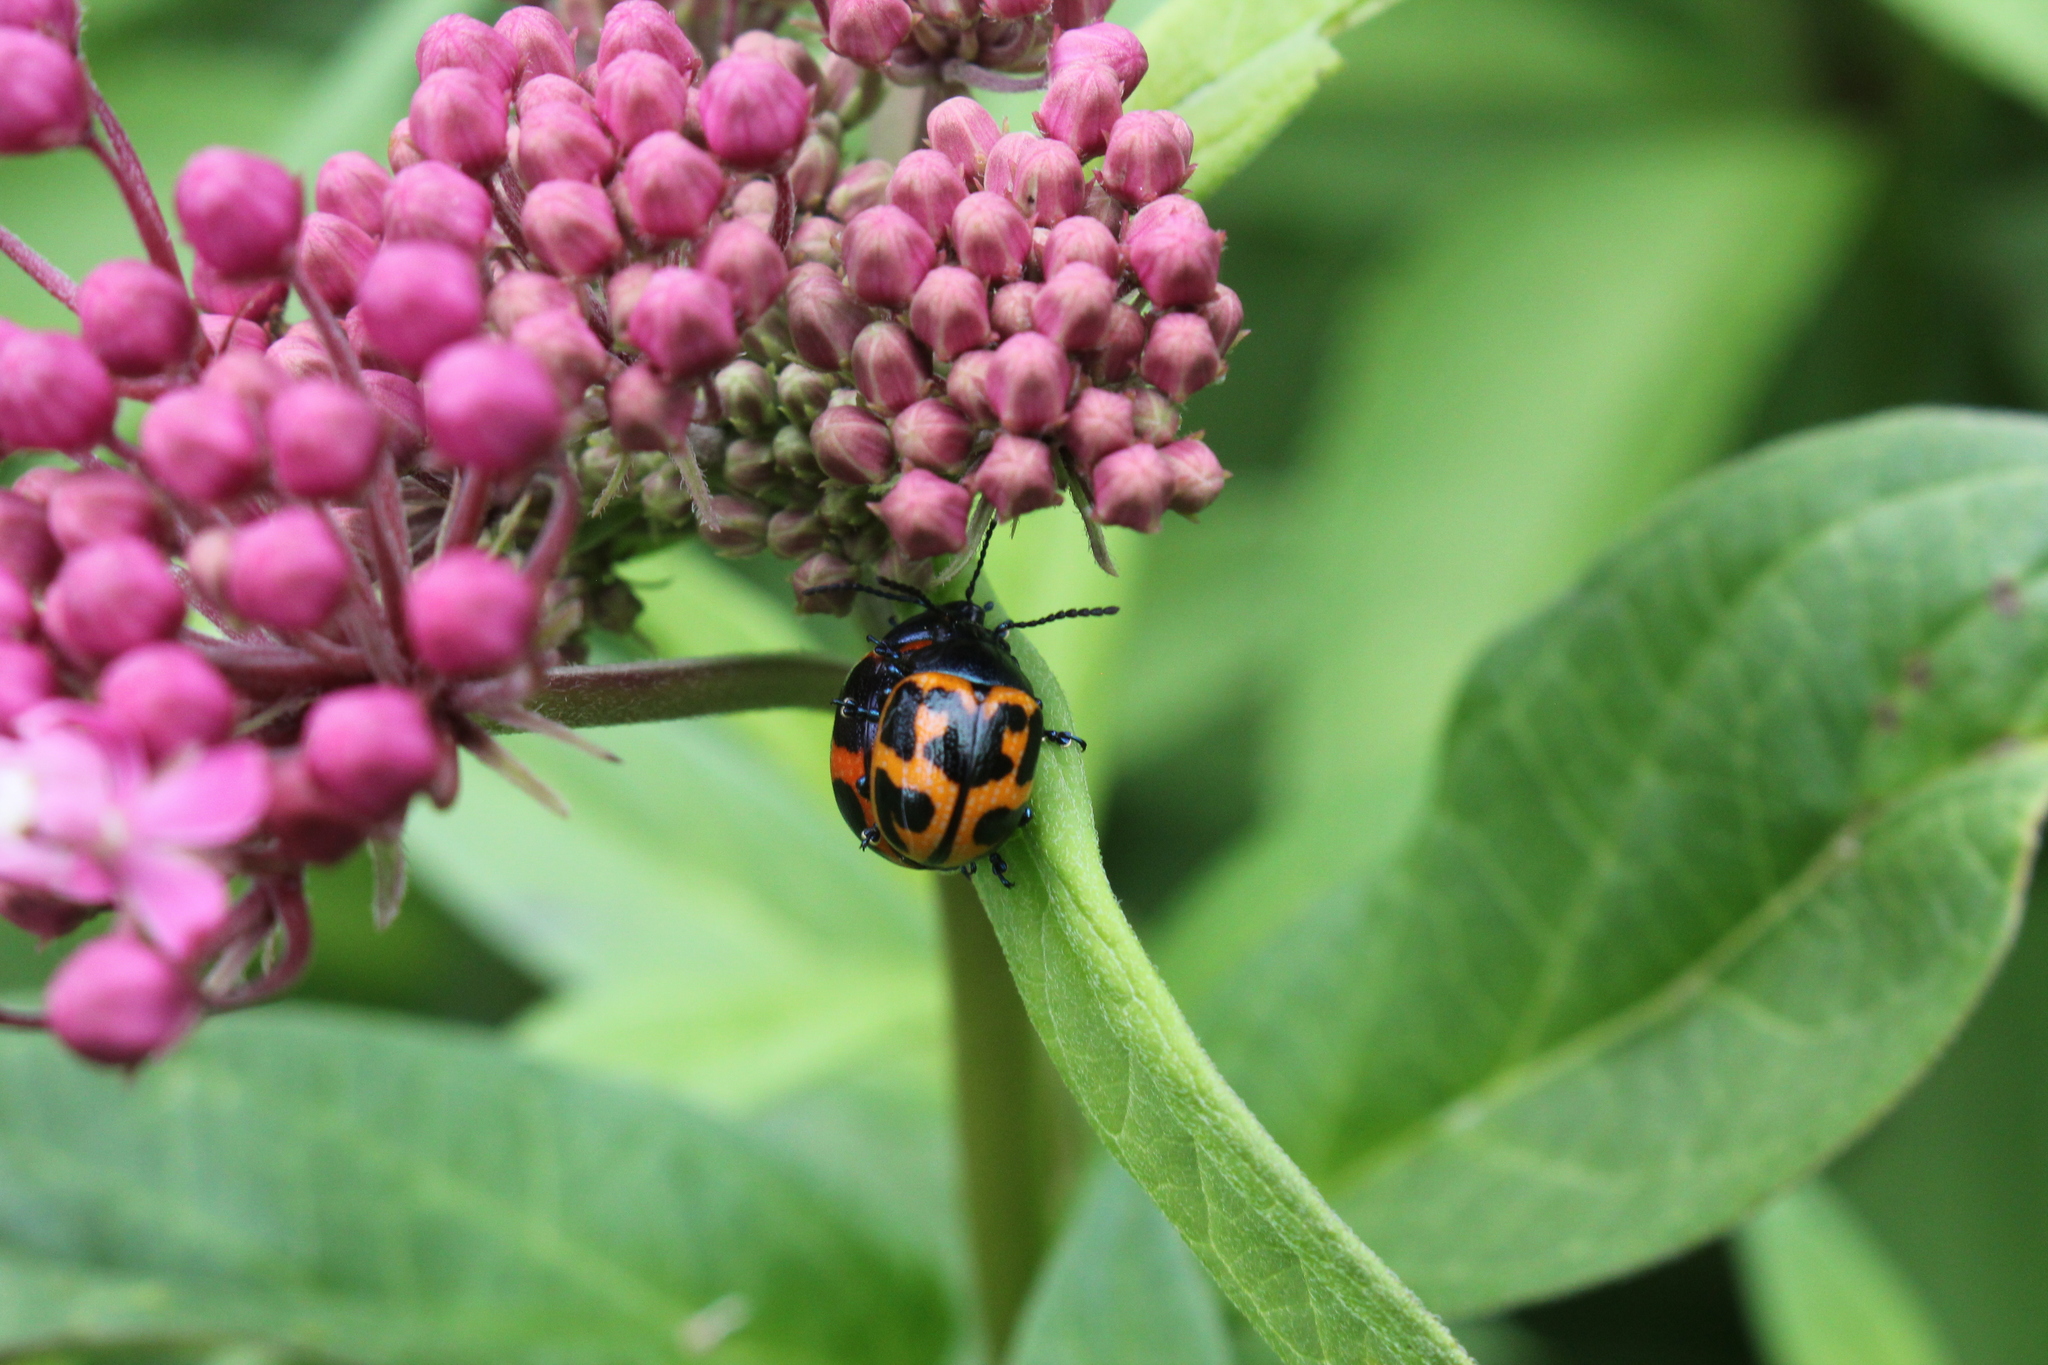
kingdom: Animalia
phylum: Arthropoda
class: Insecta
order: Coleoptera
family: Chrysomelidae
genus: Labidomera
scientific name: Labidomera clivicollis
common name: Swamp milkweed leaf beetle
